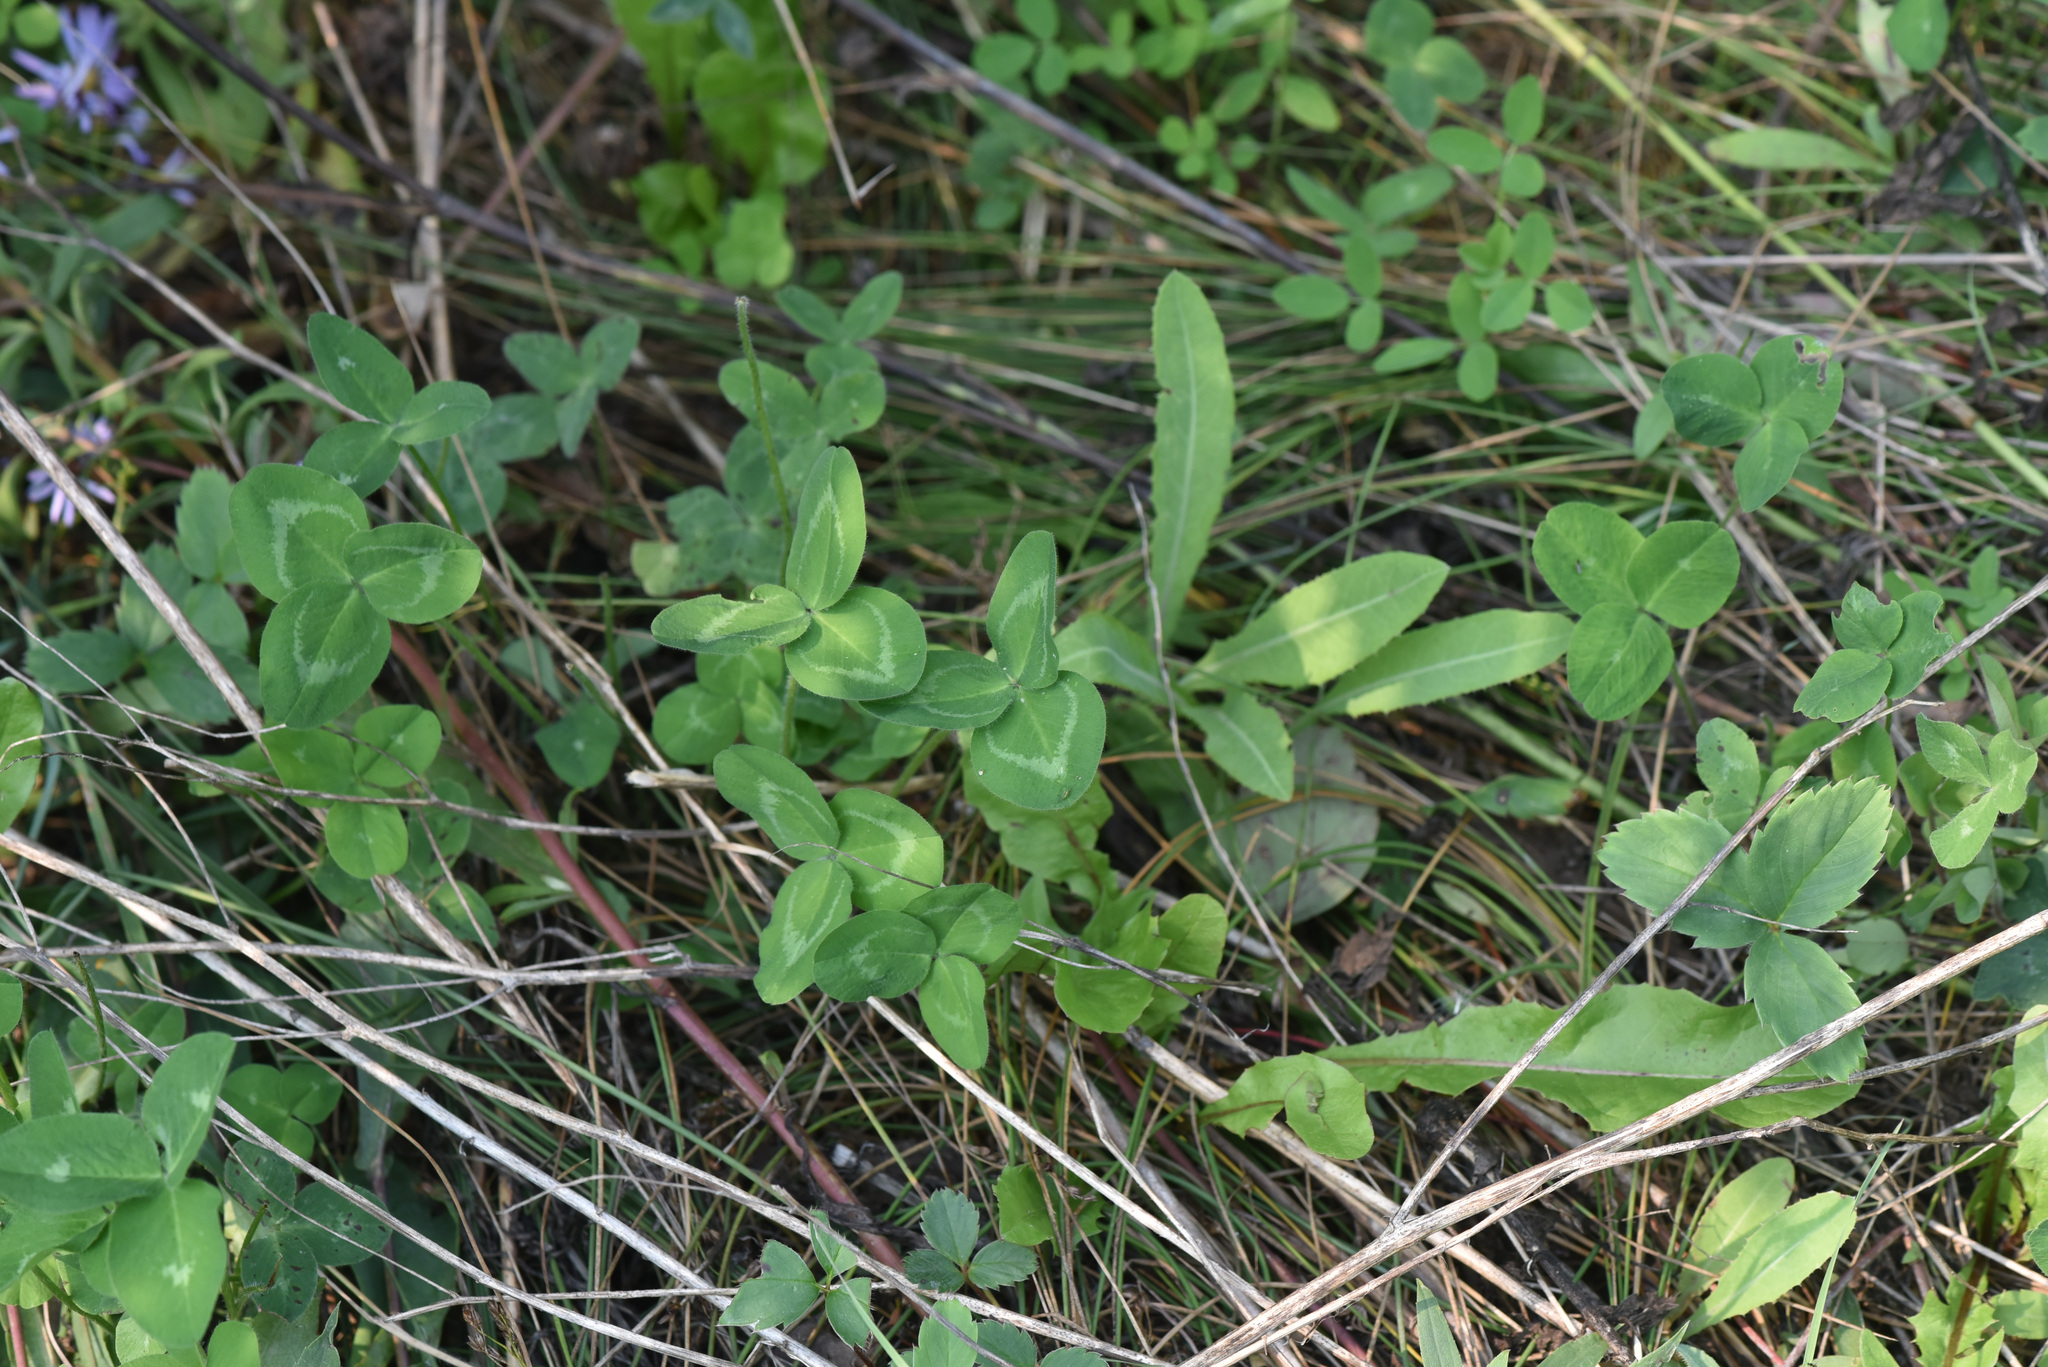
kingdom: Plantae
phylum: Tracheophyta
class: Magnoliopsida
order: Fabales
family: Fabaceae
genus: Trifolium
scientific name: Trifolium pratense
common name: Red clover
